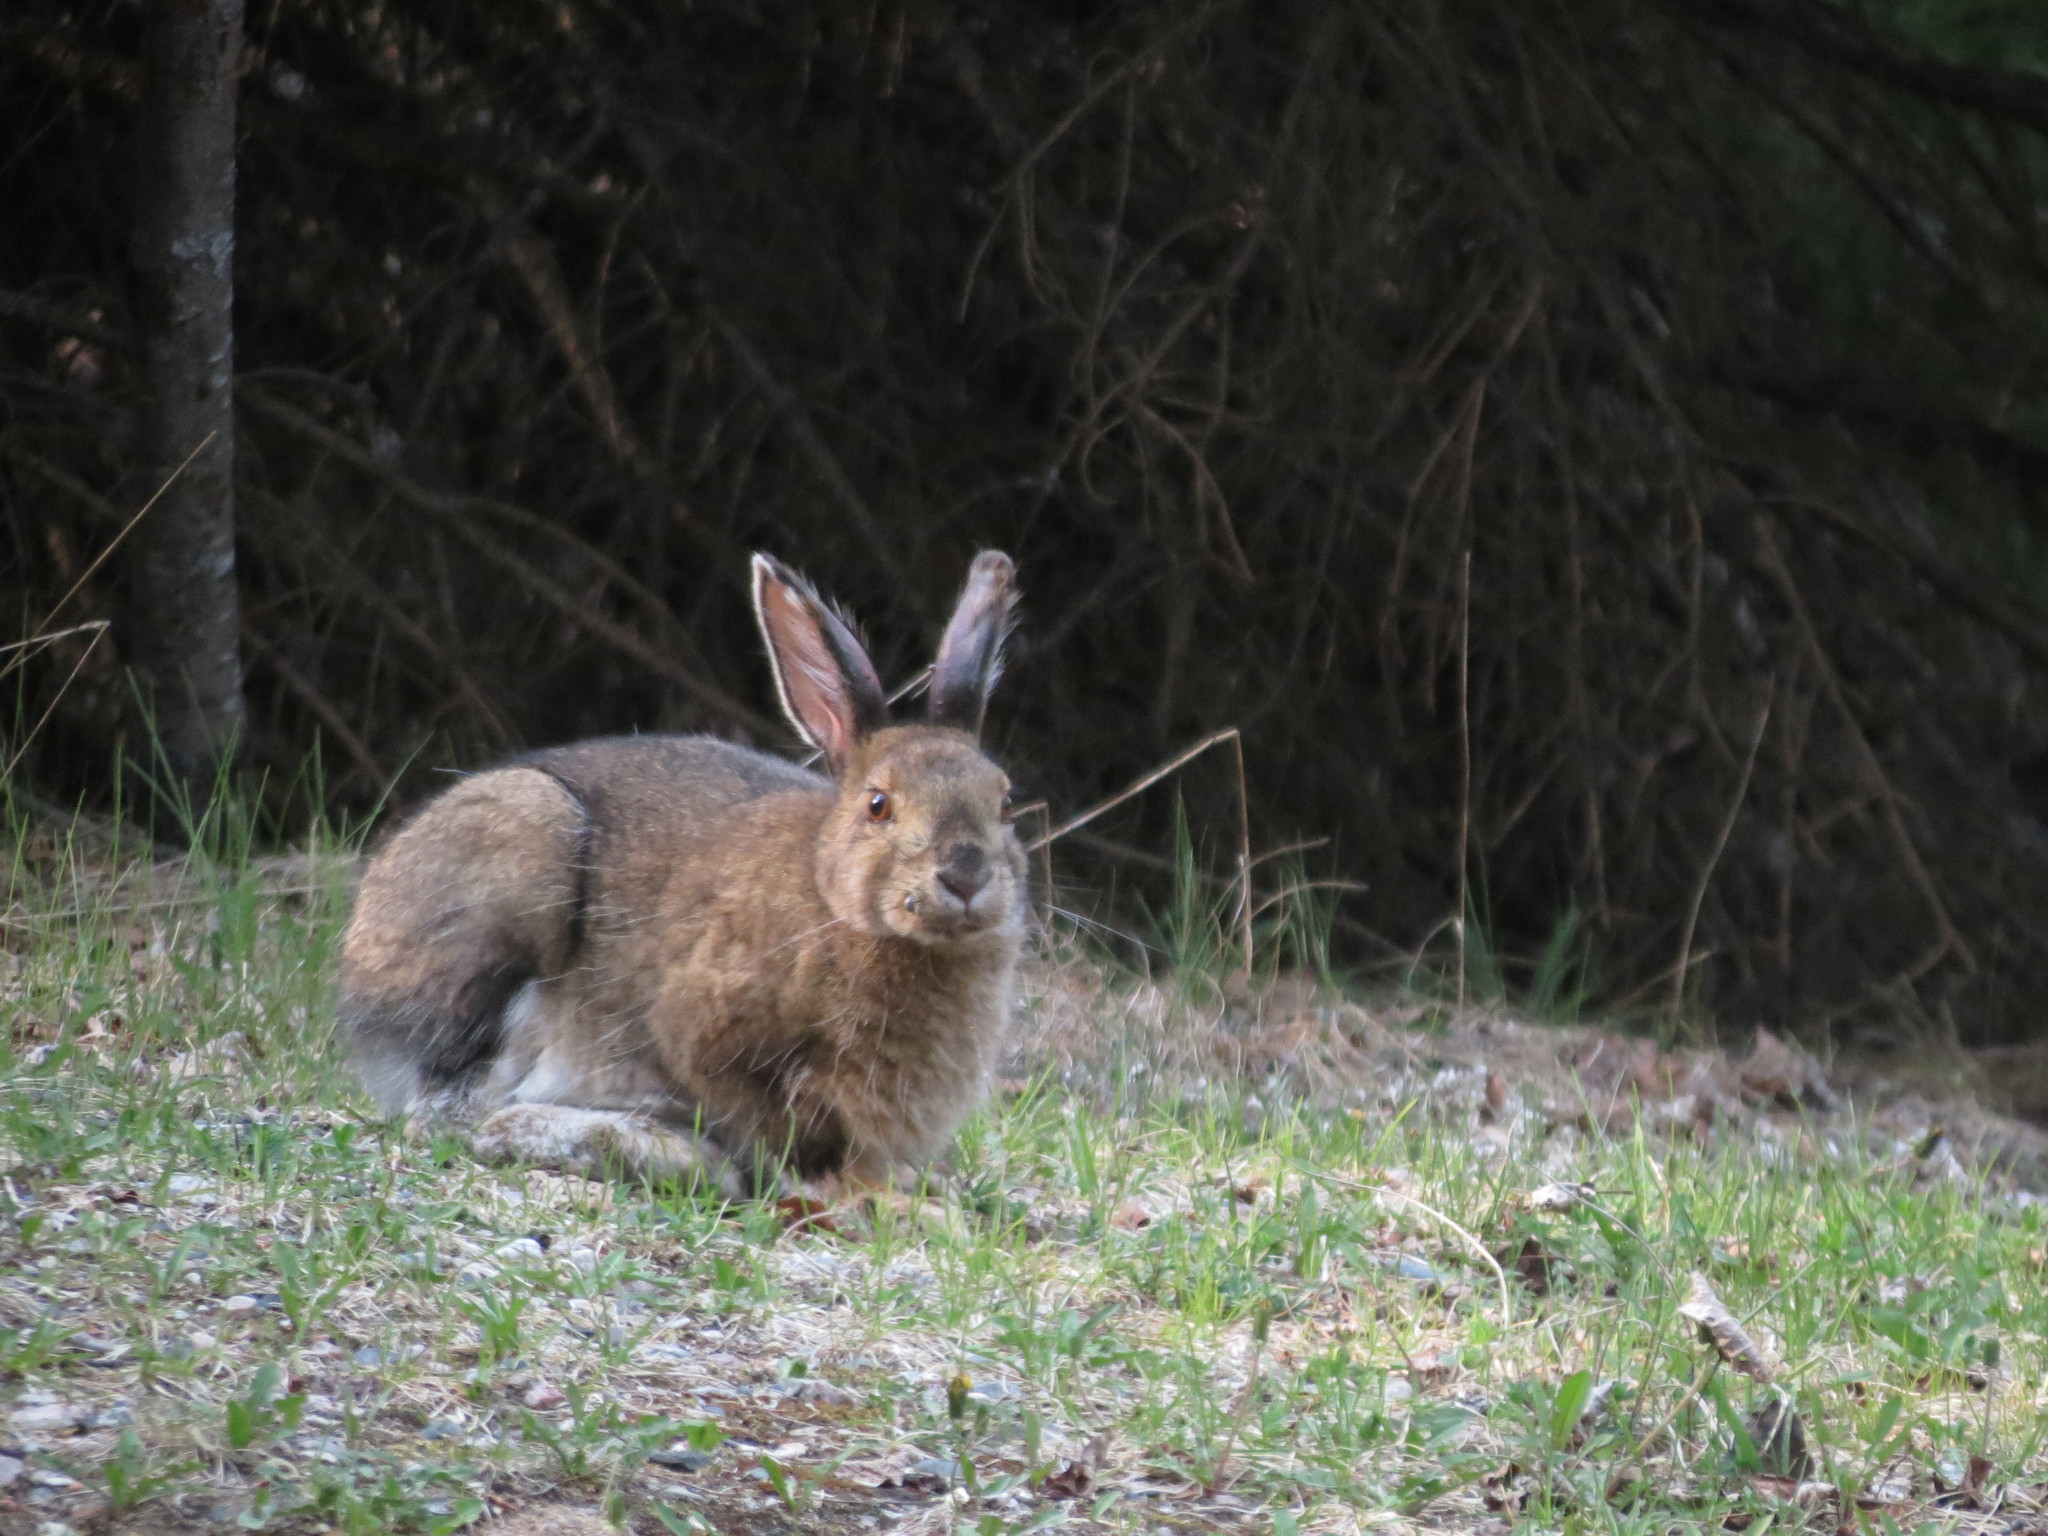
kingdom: Animalia
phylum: Chordata
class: Mammalia
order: Lagomorpha
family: Leporidae
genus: Lepus
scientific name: Lepus americanus
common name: Snowshoe hare
